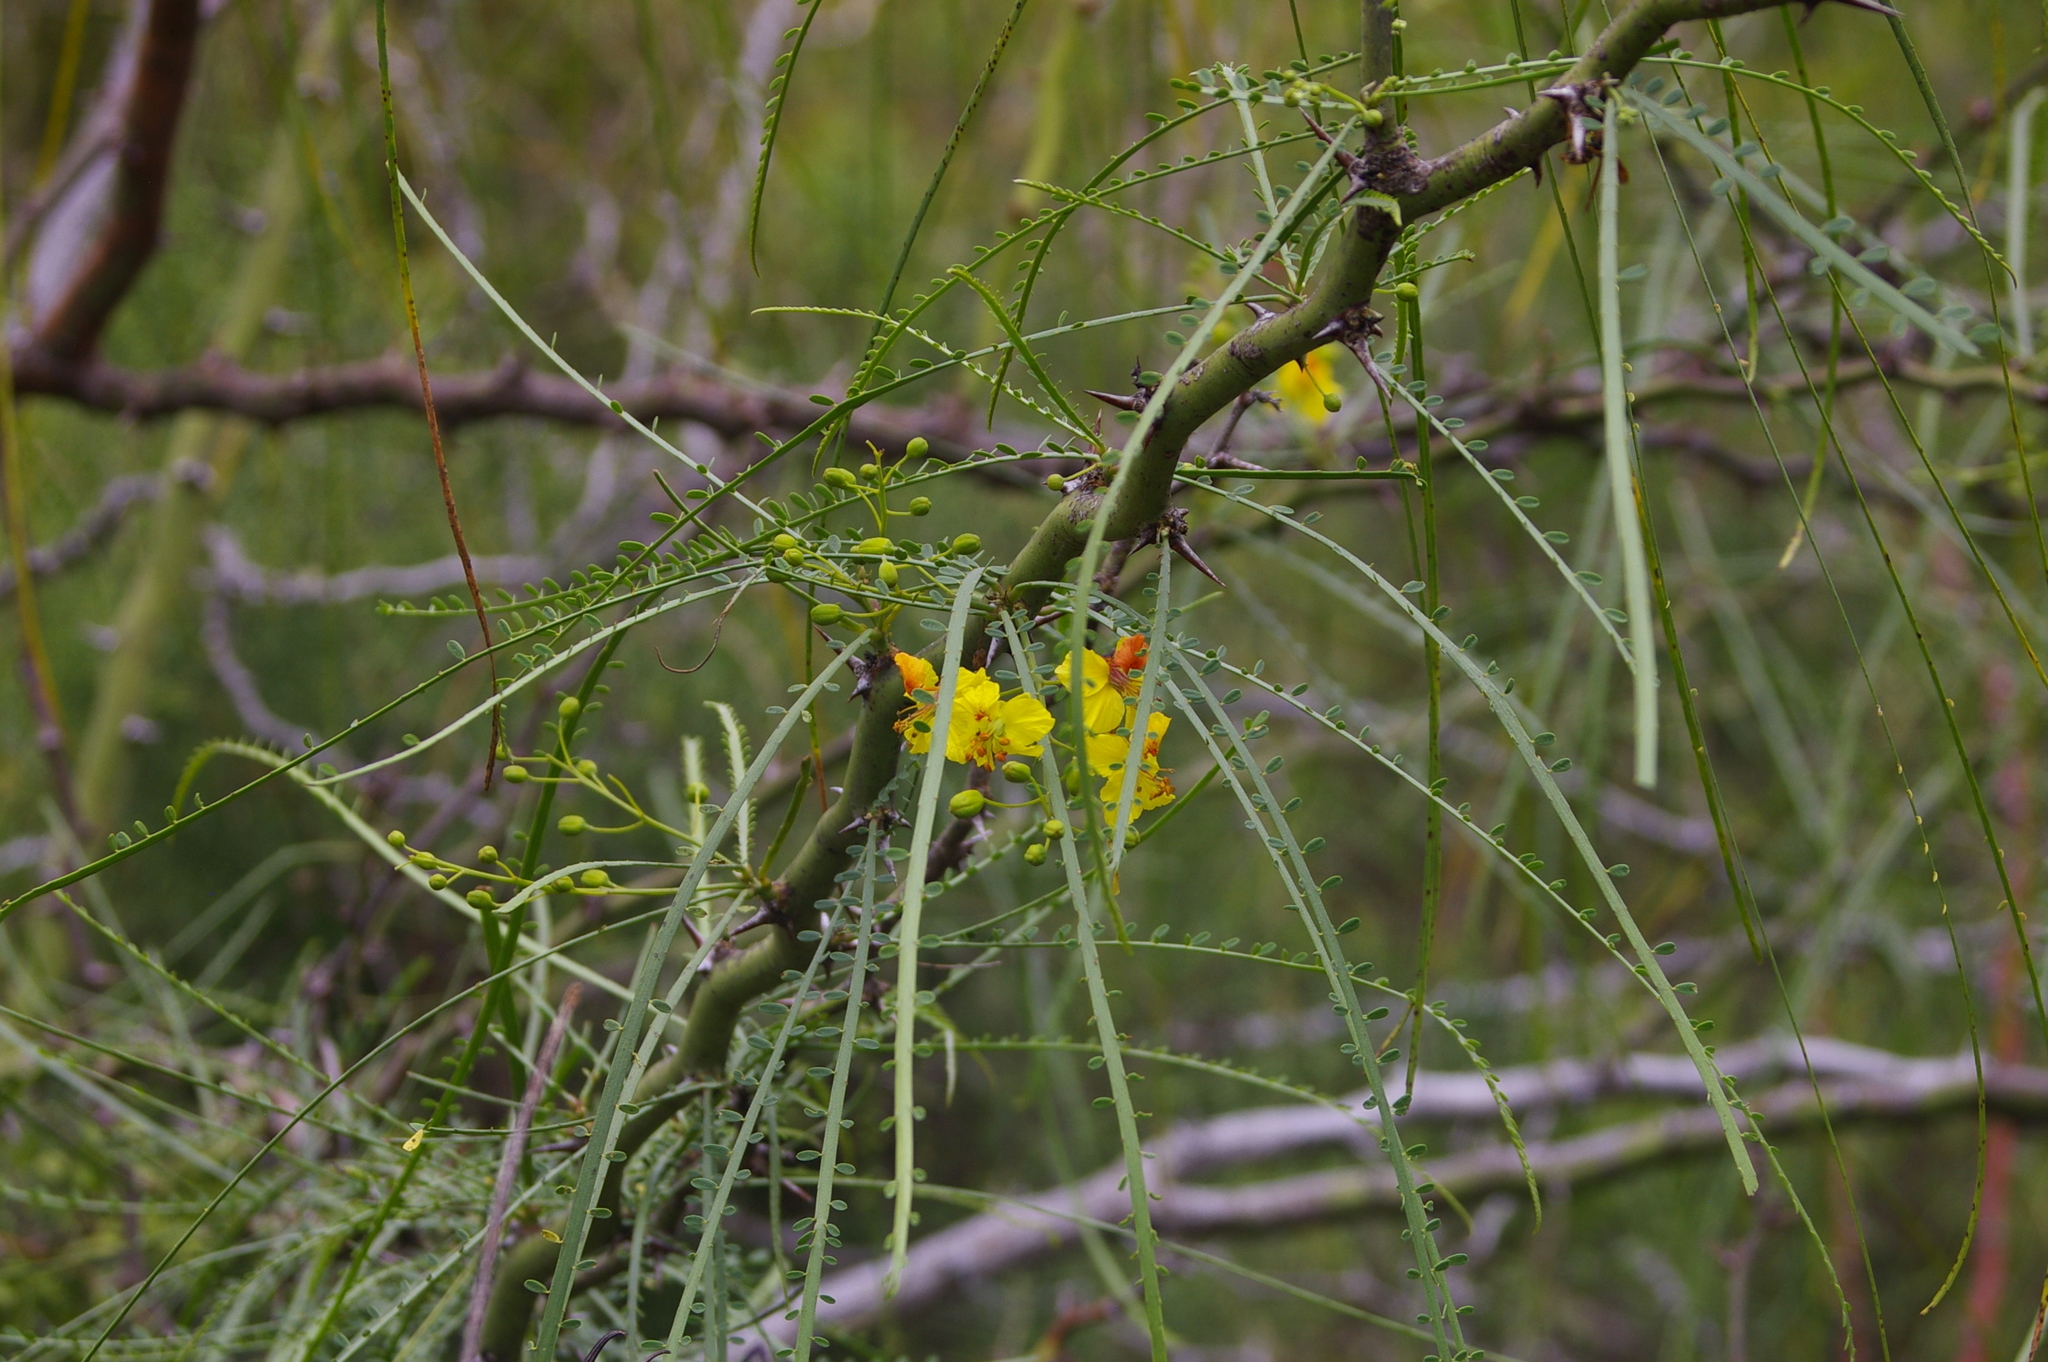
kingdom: Plantae
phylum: Tracheophyta
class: Magnoliopsida
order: Fabales
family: Fabaceae
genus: Parkinsonia
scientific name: Parkinsonia aculeata
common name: Jerusalem thorn
